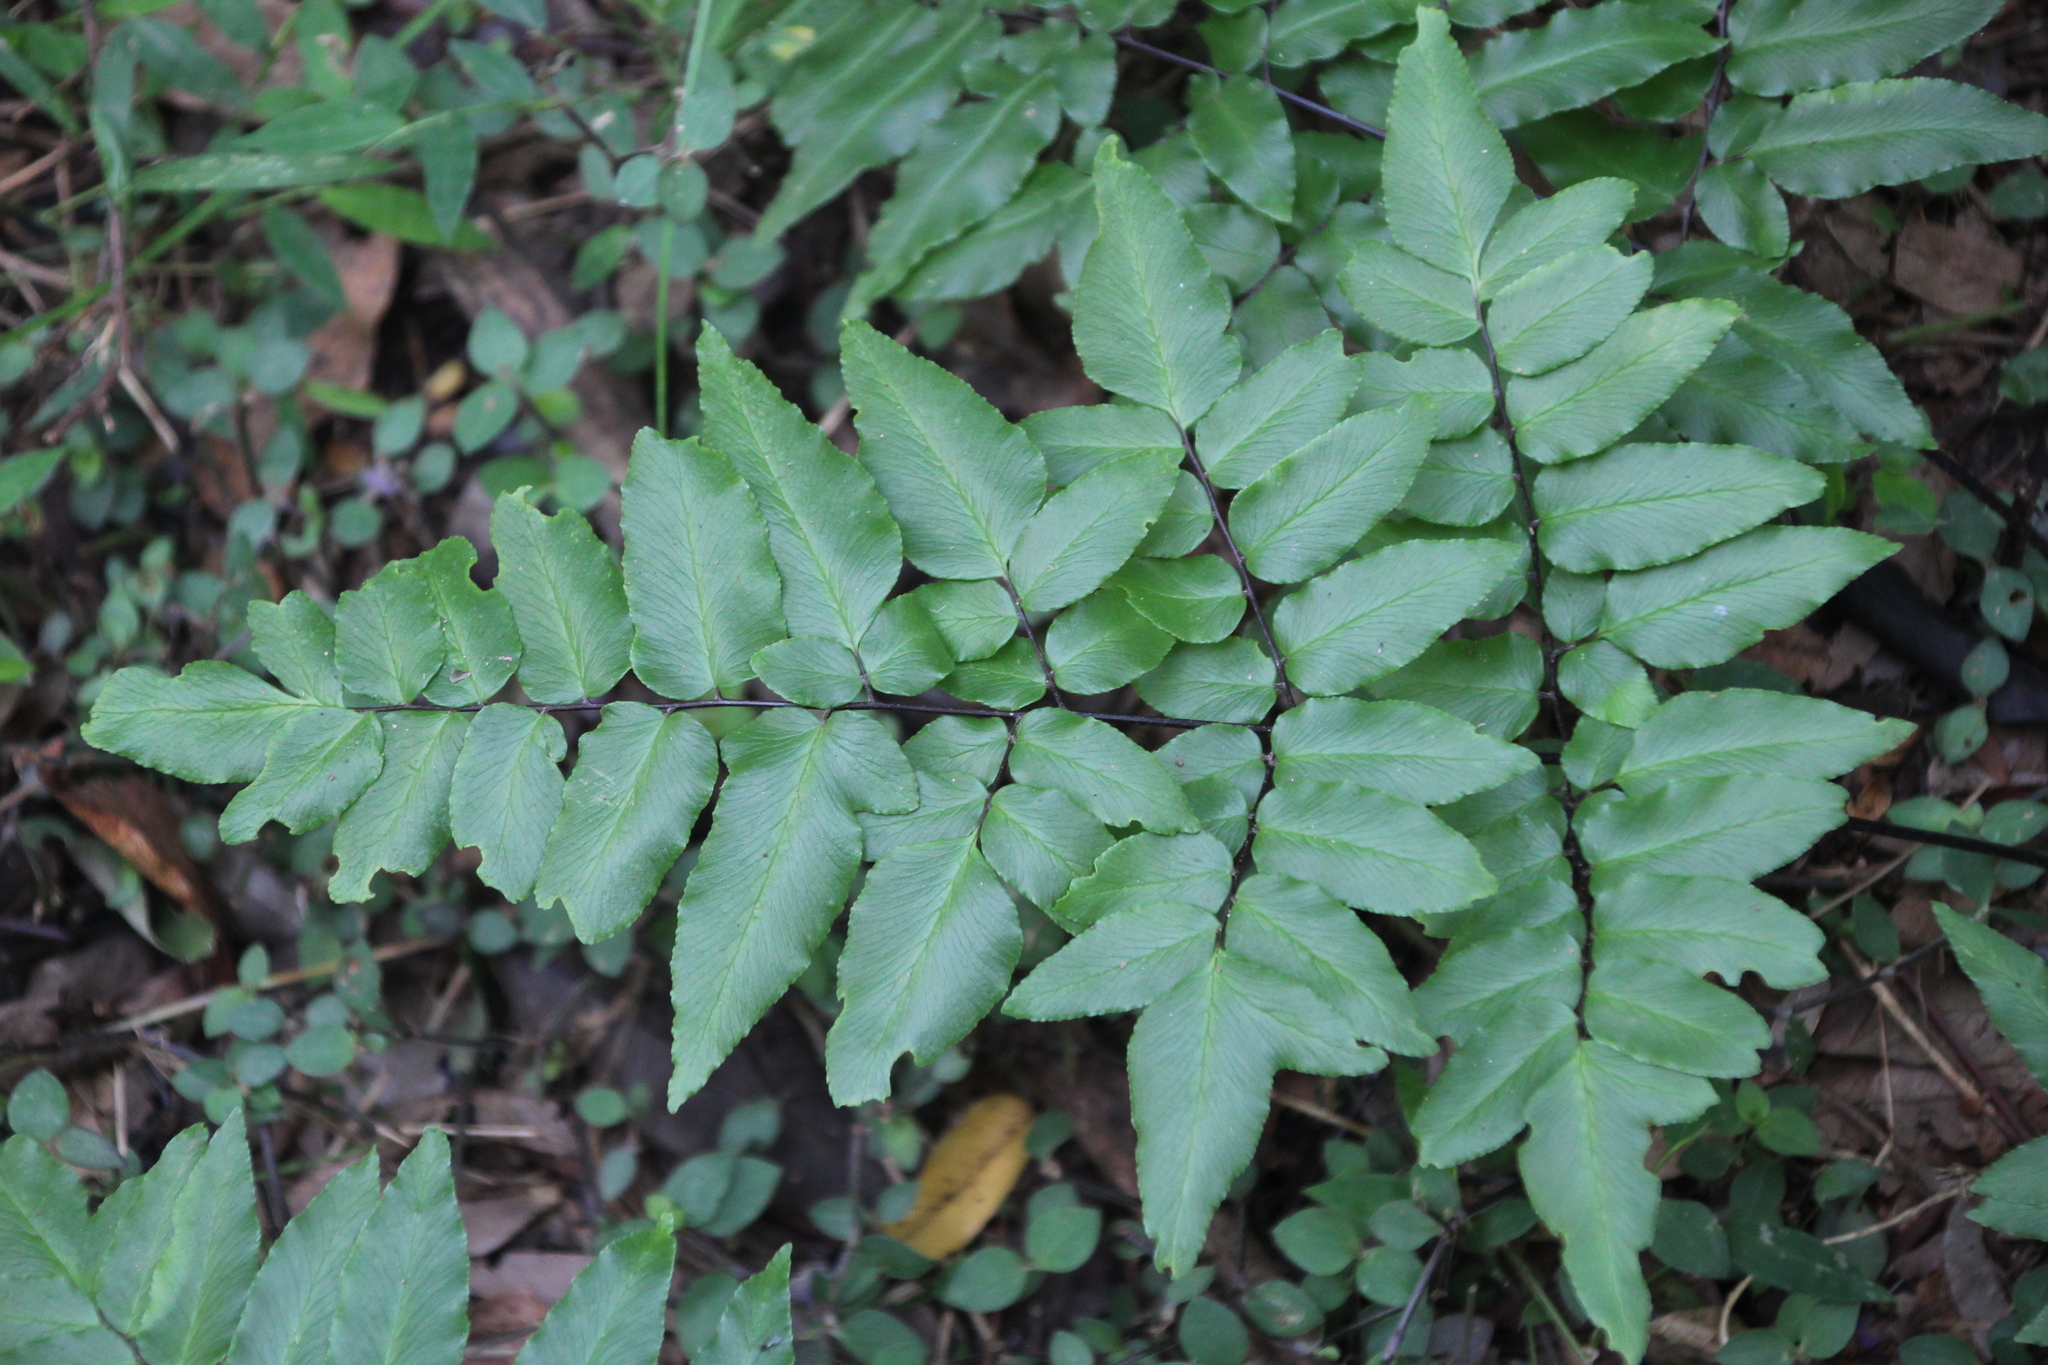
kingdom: Plantae
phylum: Tracheophyta
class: Polypodiopsida
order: Polypodiales
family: Pteridaceae
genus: Cheilanthes
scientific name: Cheilanthes viridis
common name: Green cliffbrake
